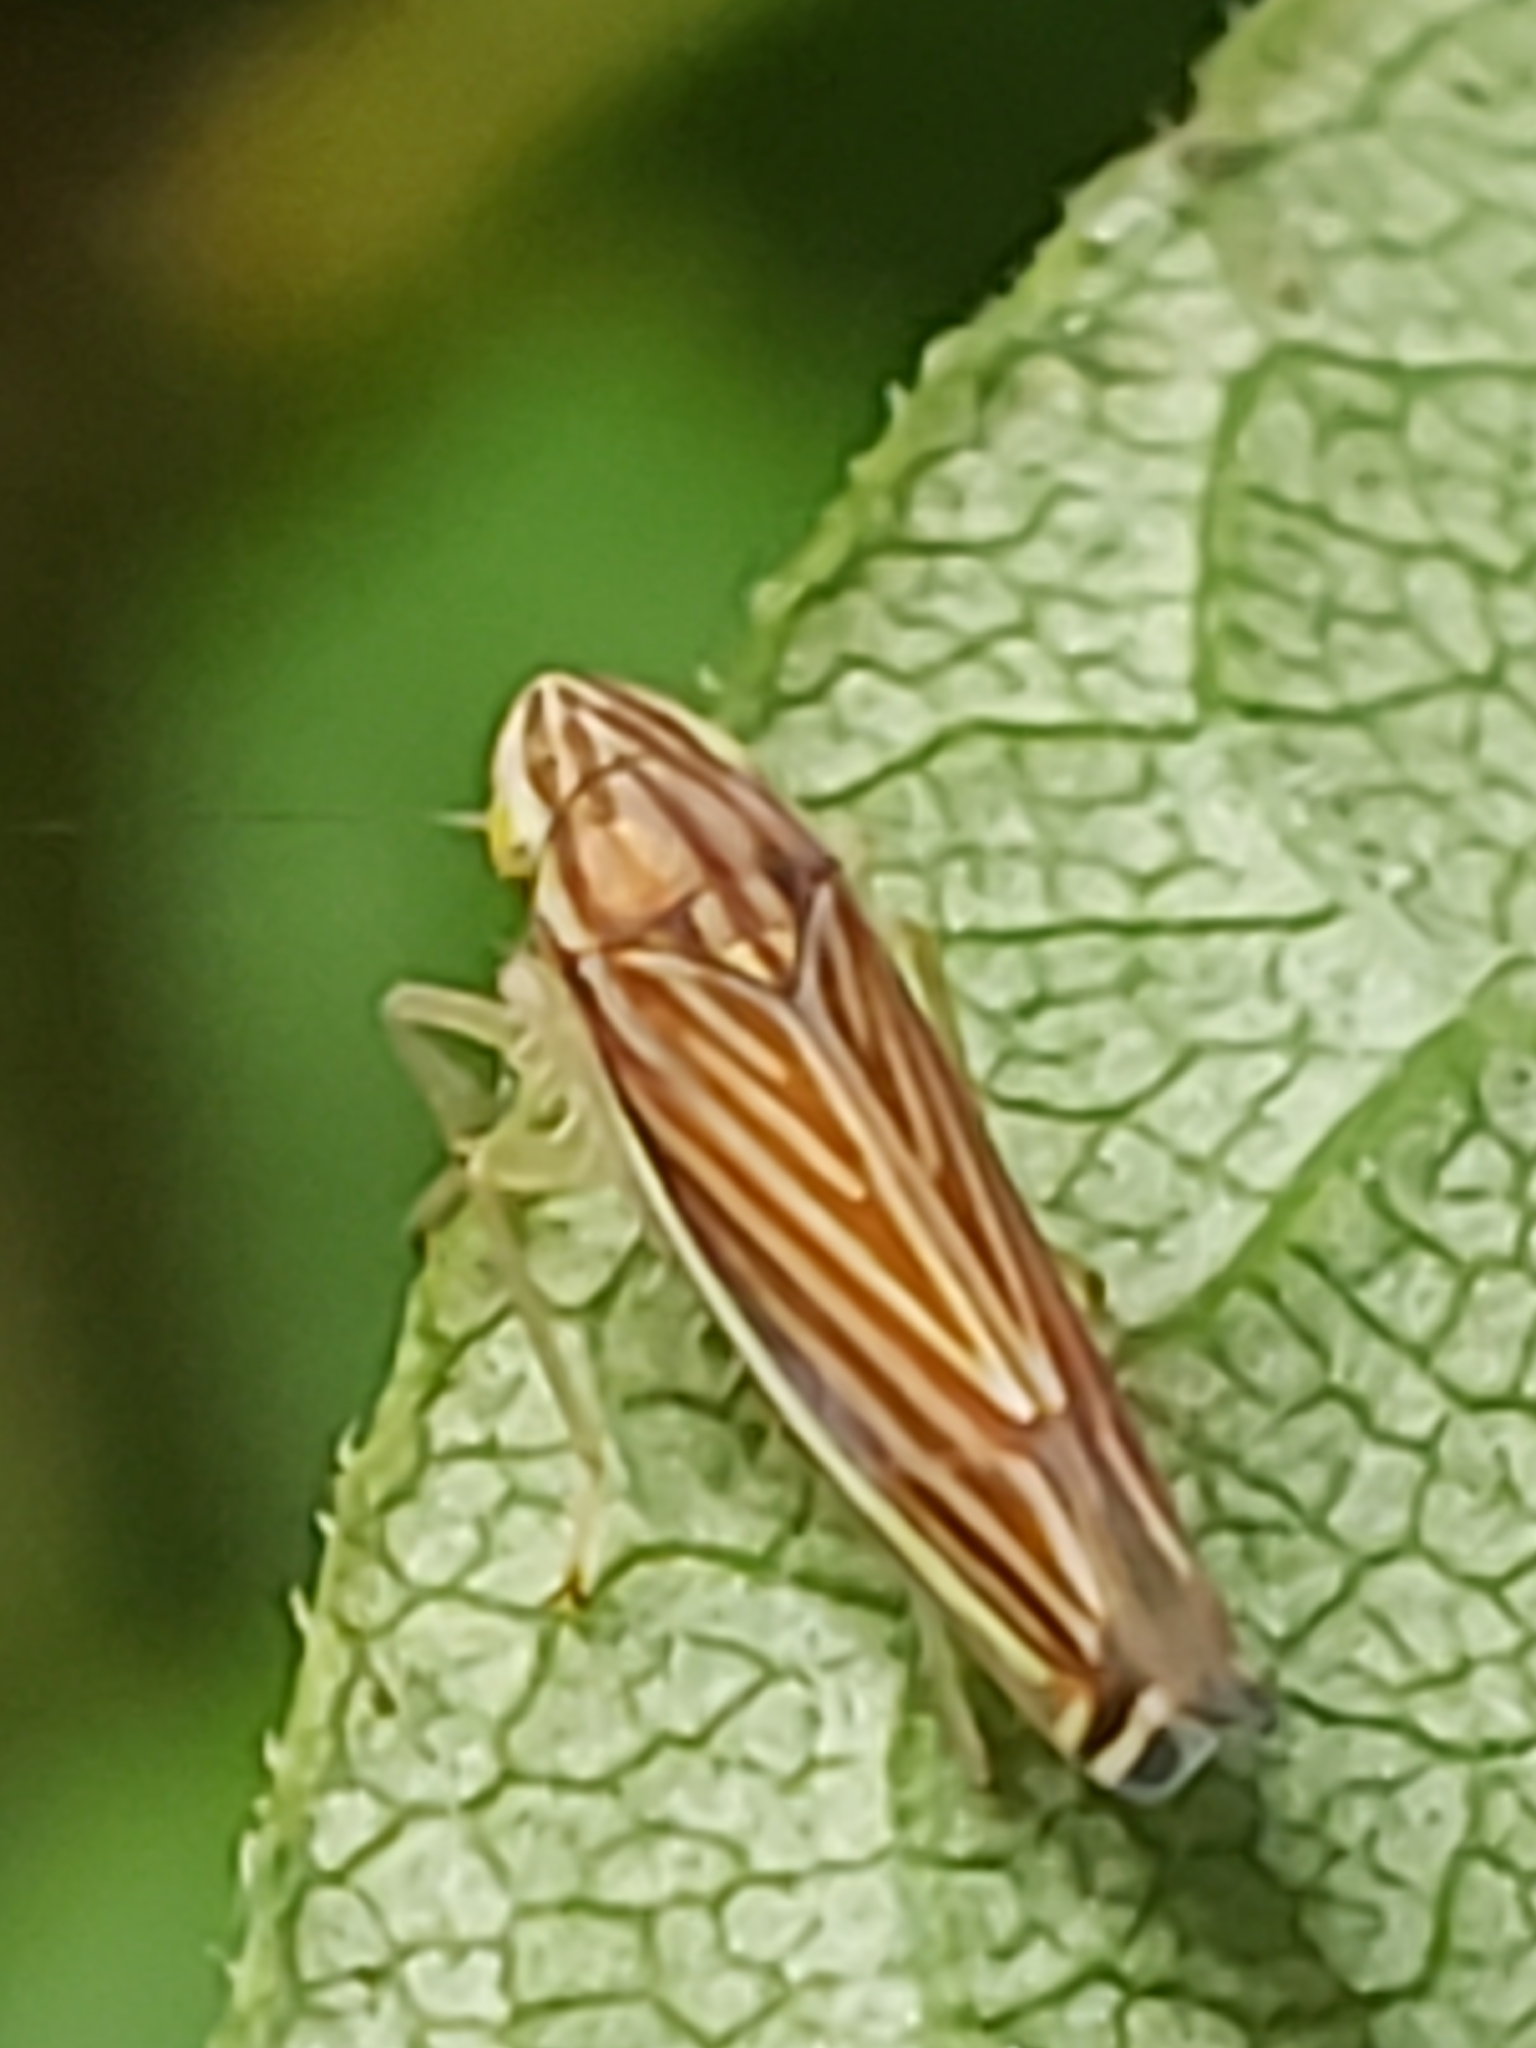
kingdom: Animalia
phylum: Arthropoda
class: Insecta
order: Hemiptera
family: Cicadellidae
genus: Sibovia
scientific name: Sibovia occatoria
